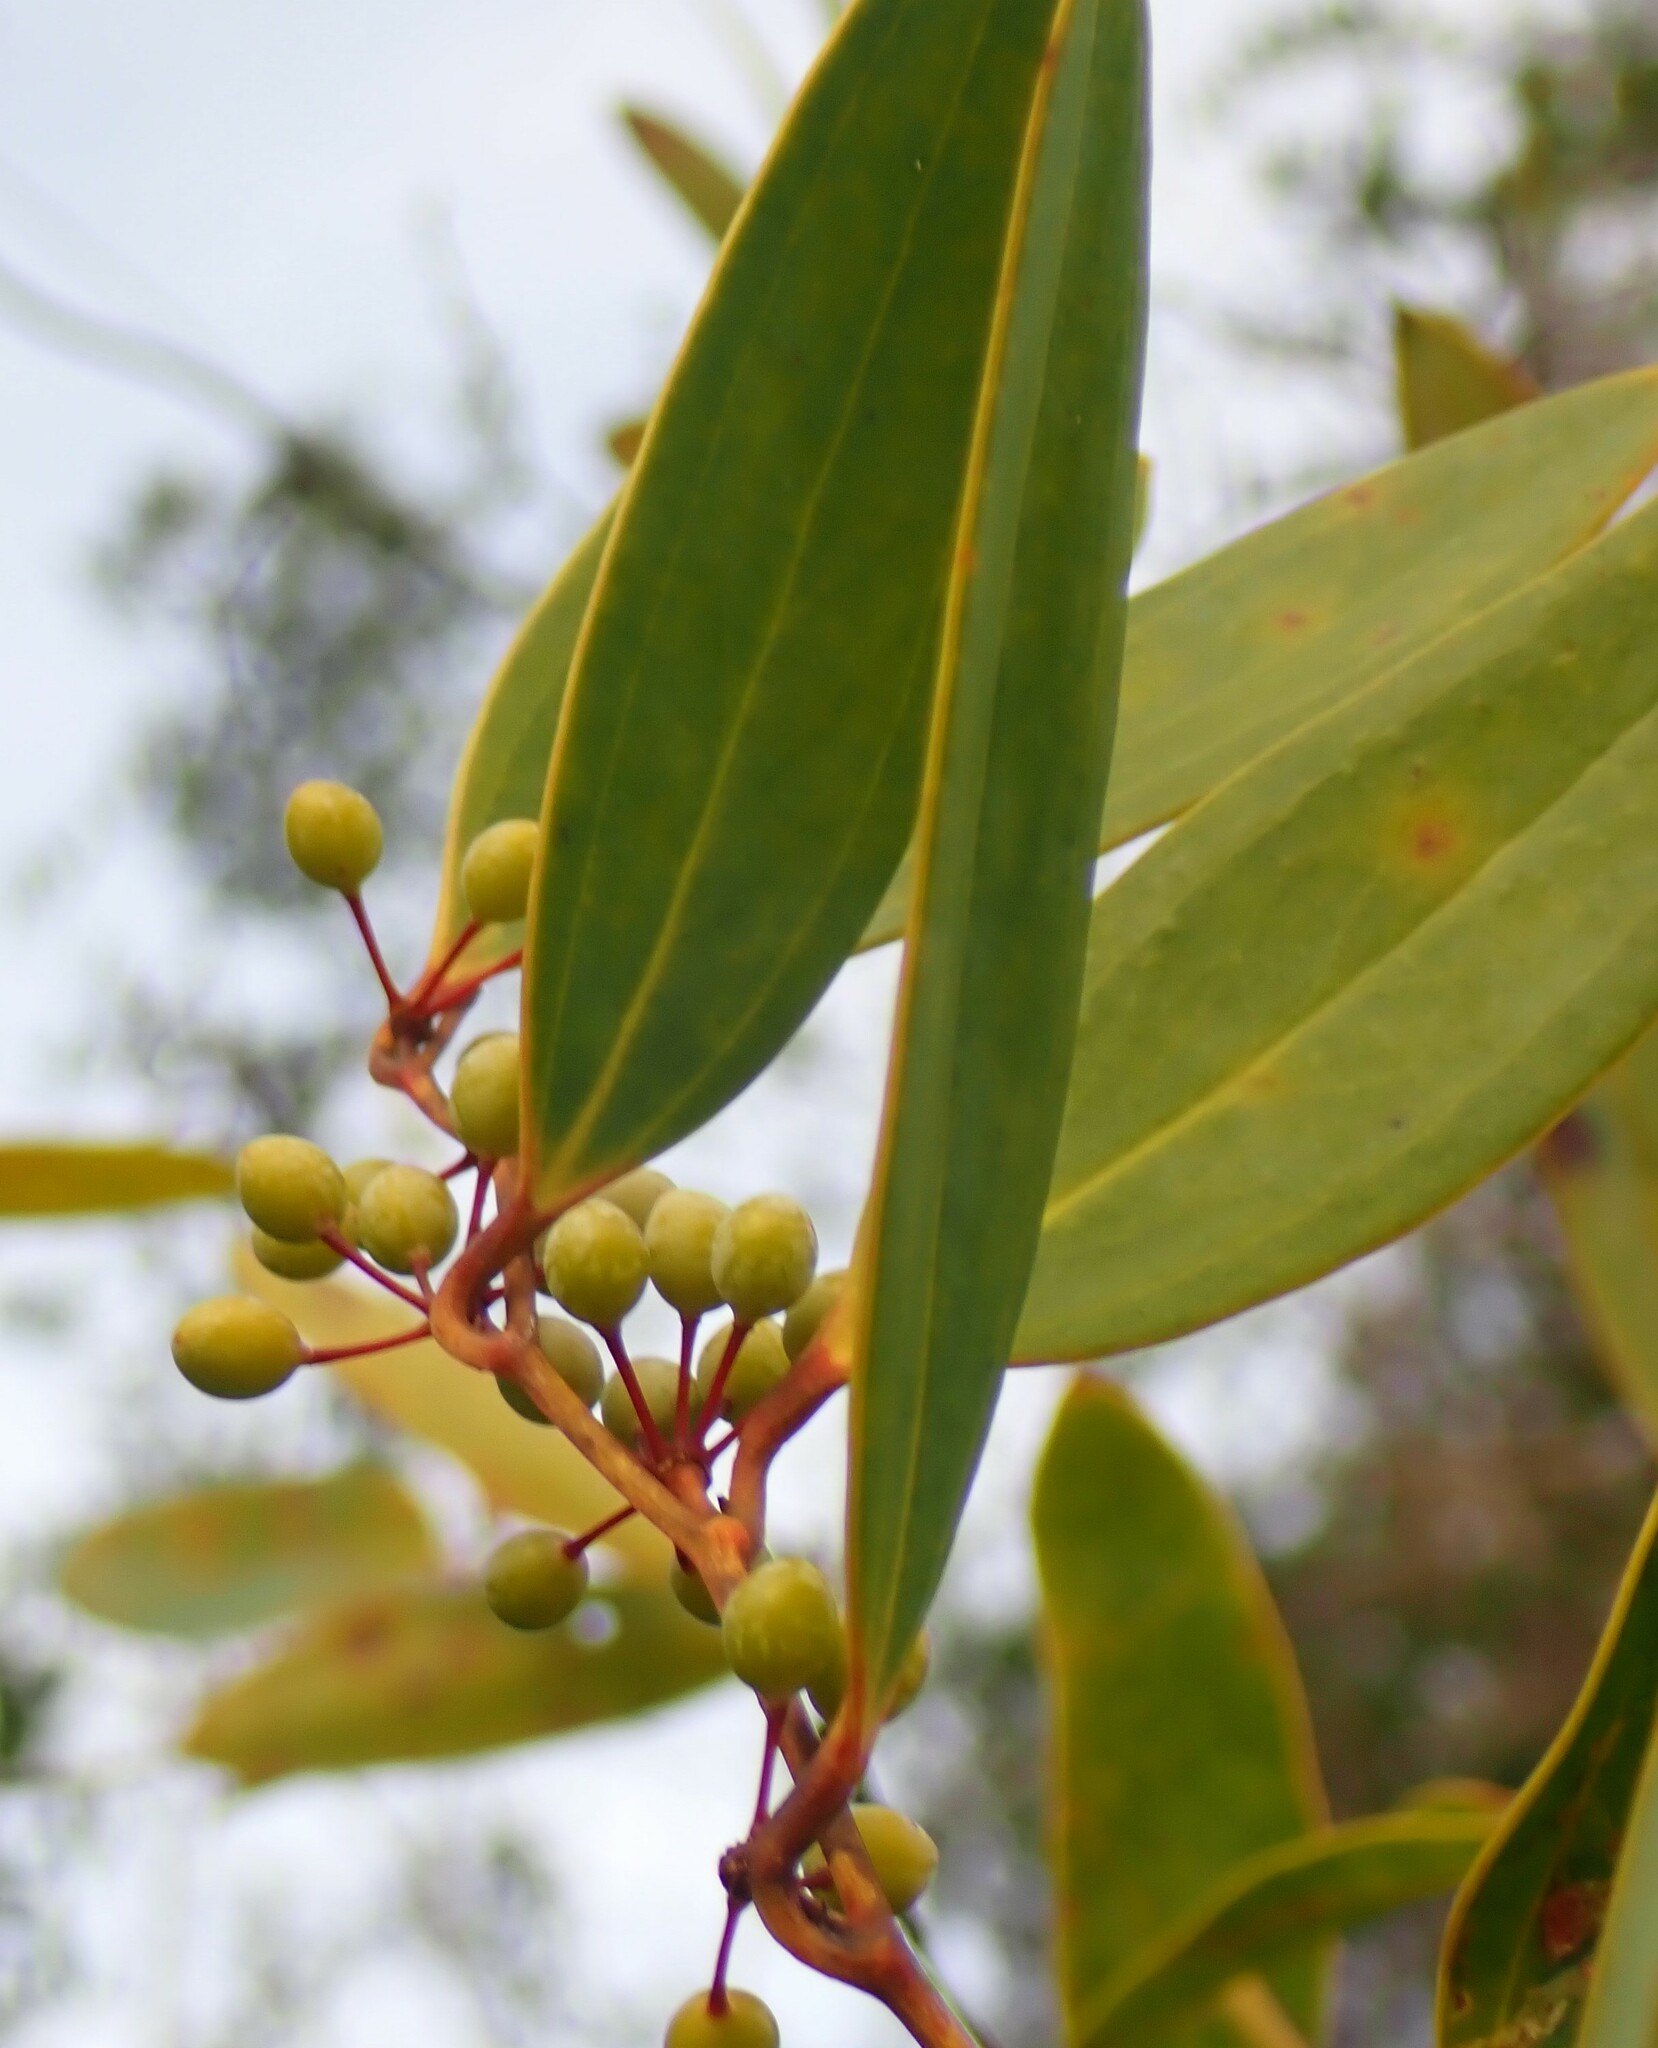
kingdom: Plantae
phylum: Tracheophyta
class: Liliopsida
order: Liliales
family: Smilacaceae
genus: Smilax
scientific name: Smilax laurifolia
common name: Bamboovine
